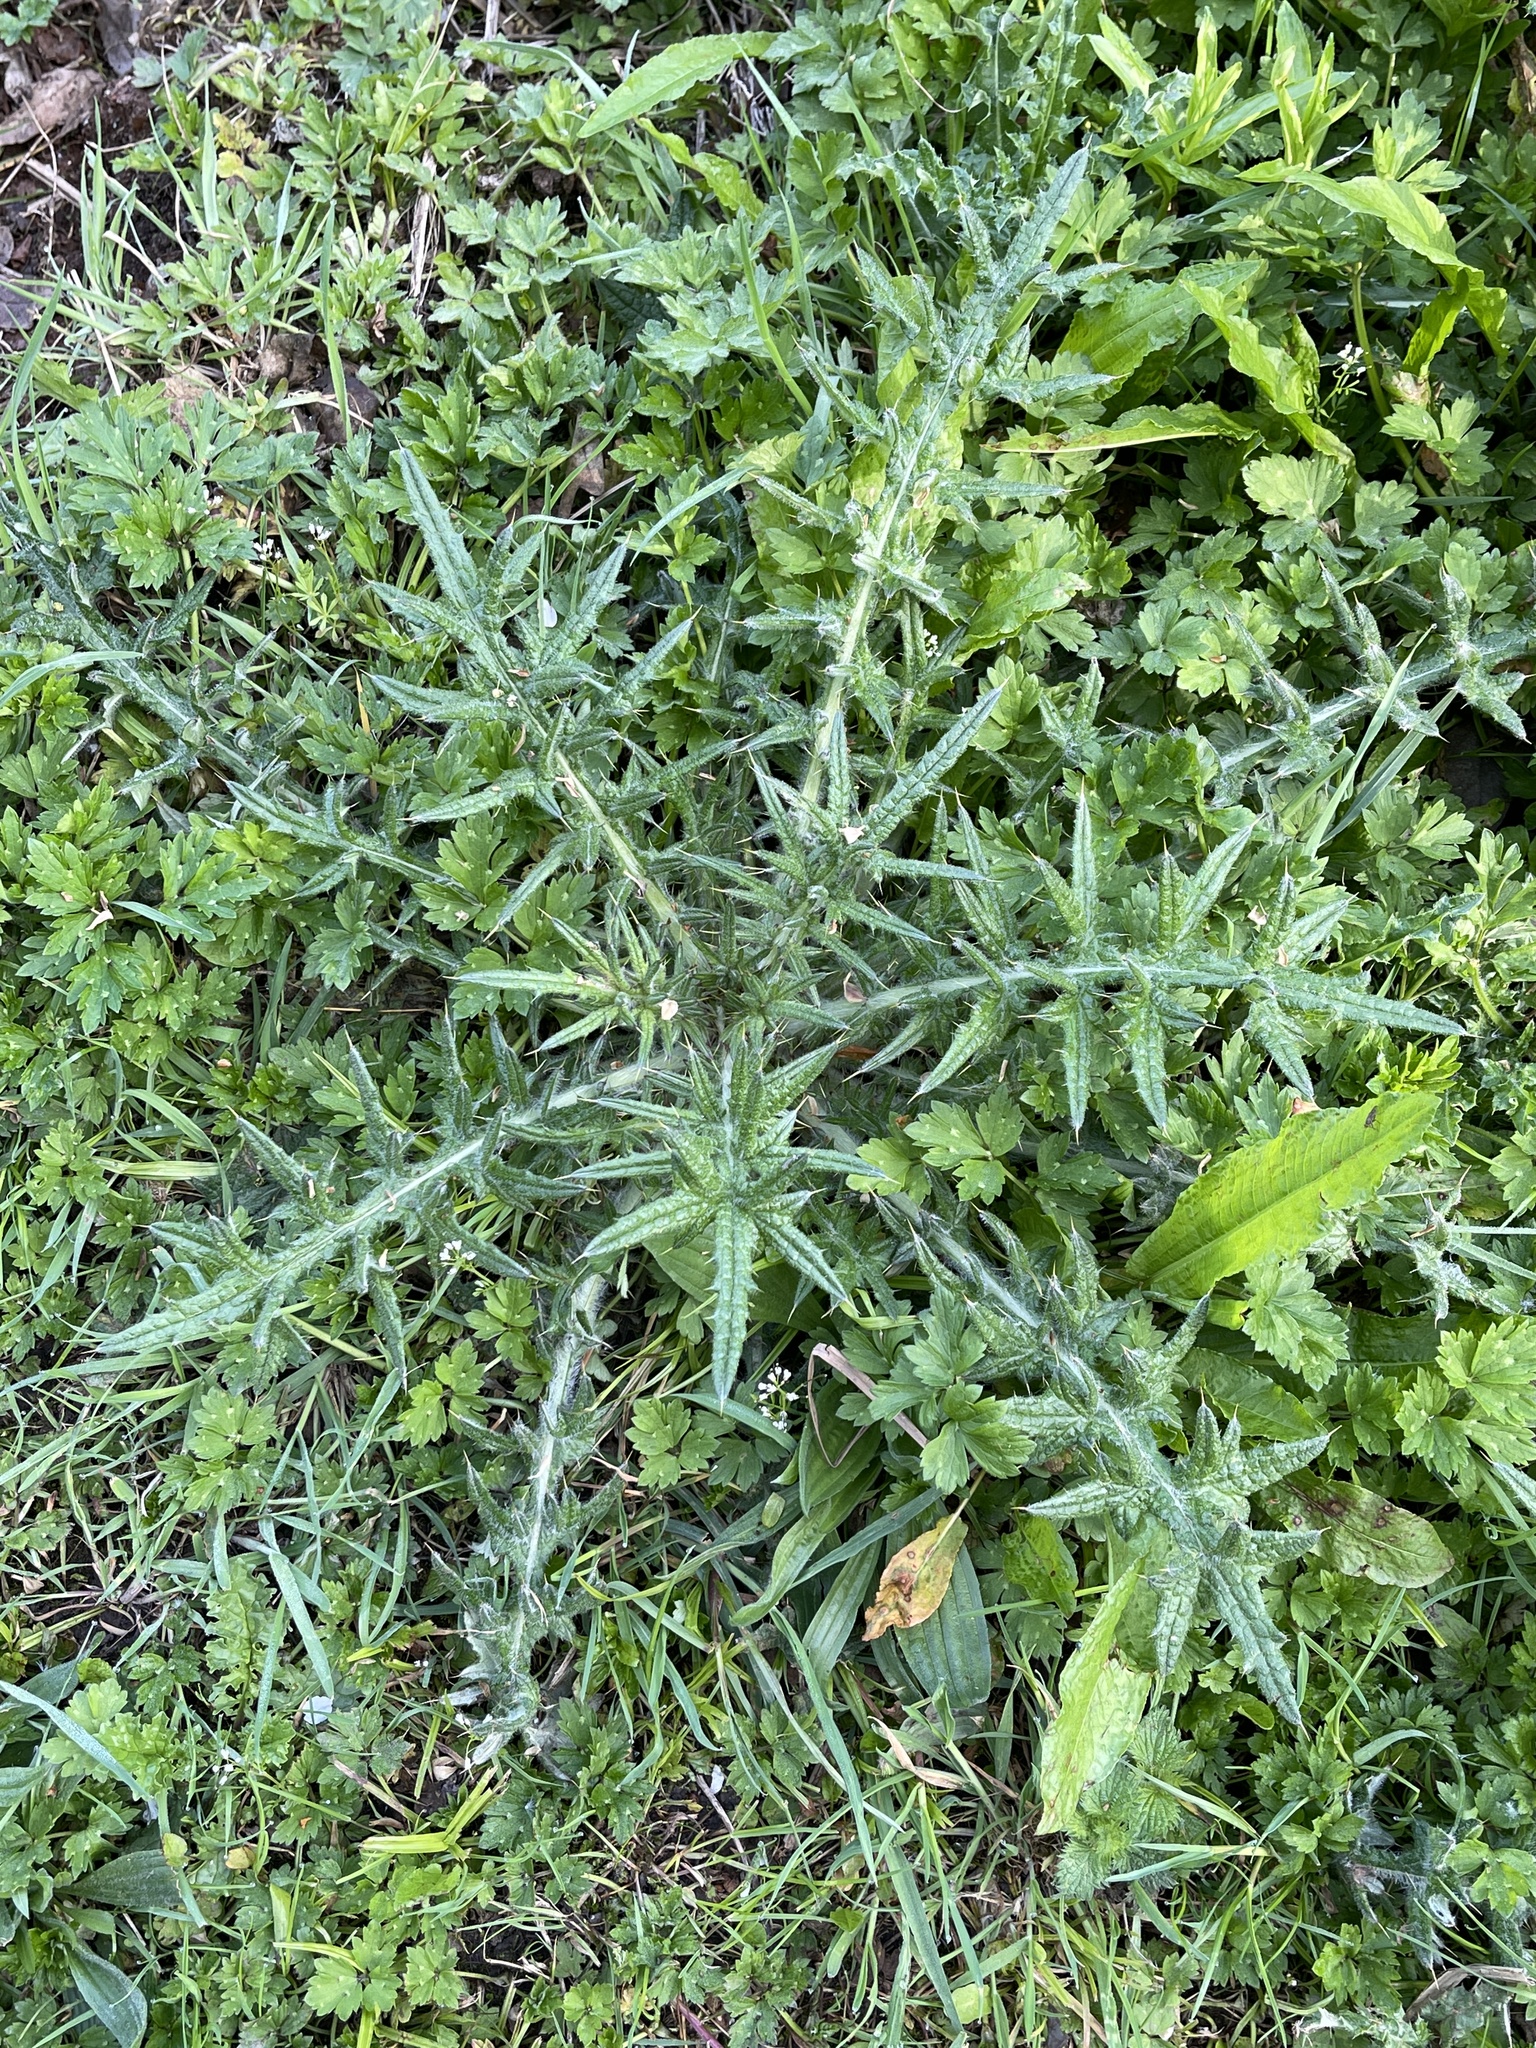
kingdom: Plantae
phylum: Tracheophyta
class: Magnoliopsida
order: Asterales
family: Asteraceae
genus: Cirsium
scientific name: Cirsium vulgare
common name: Bull thistle
